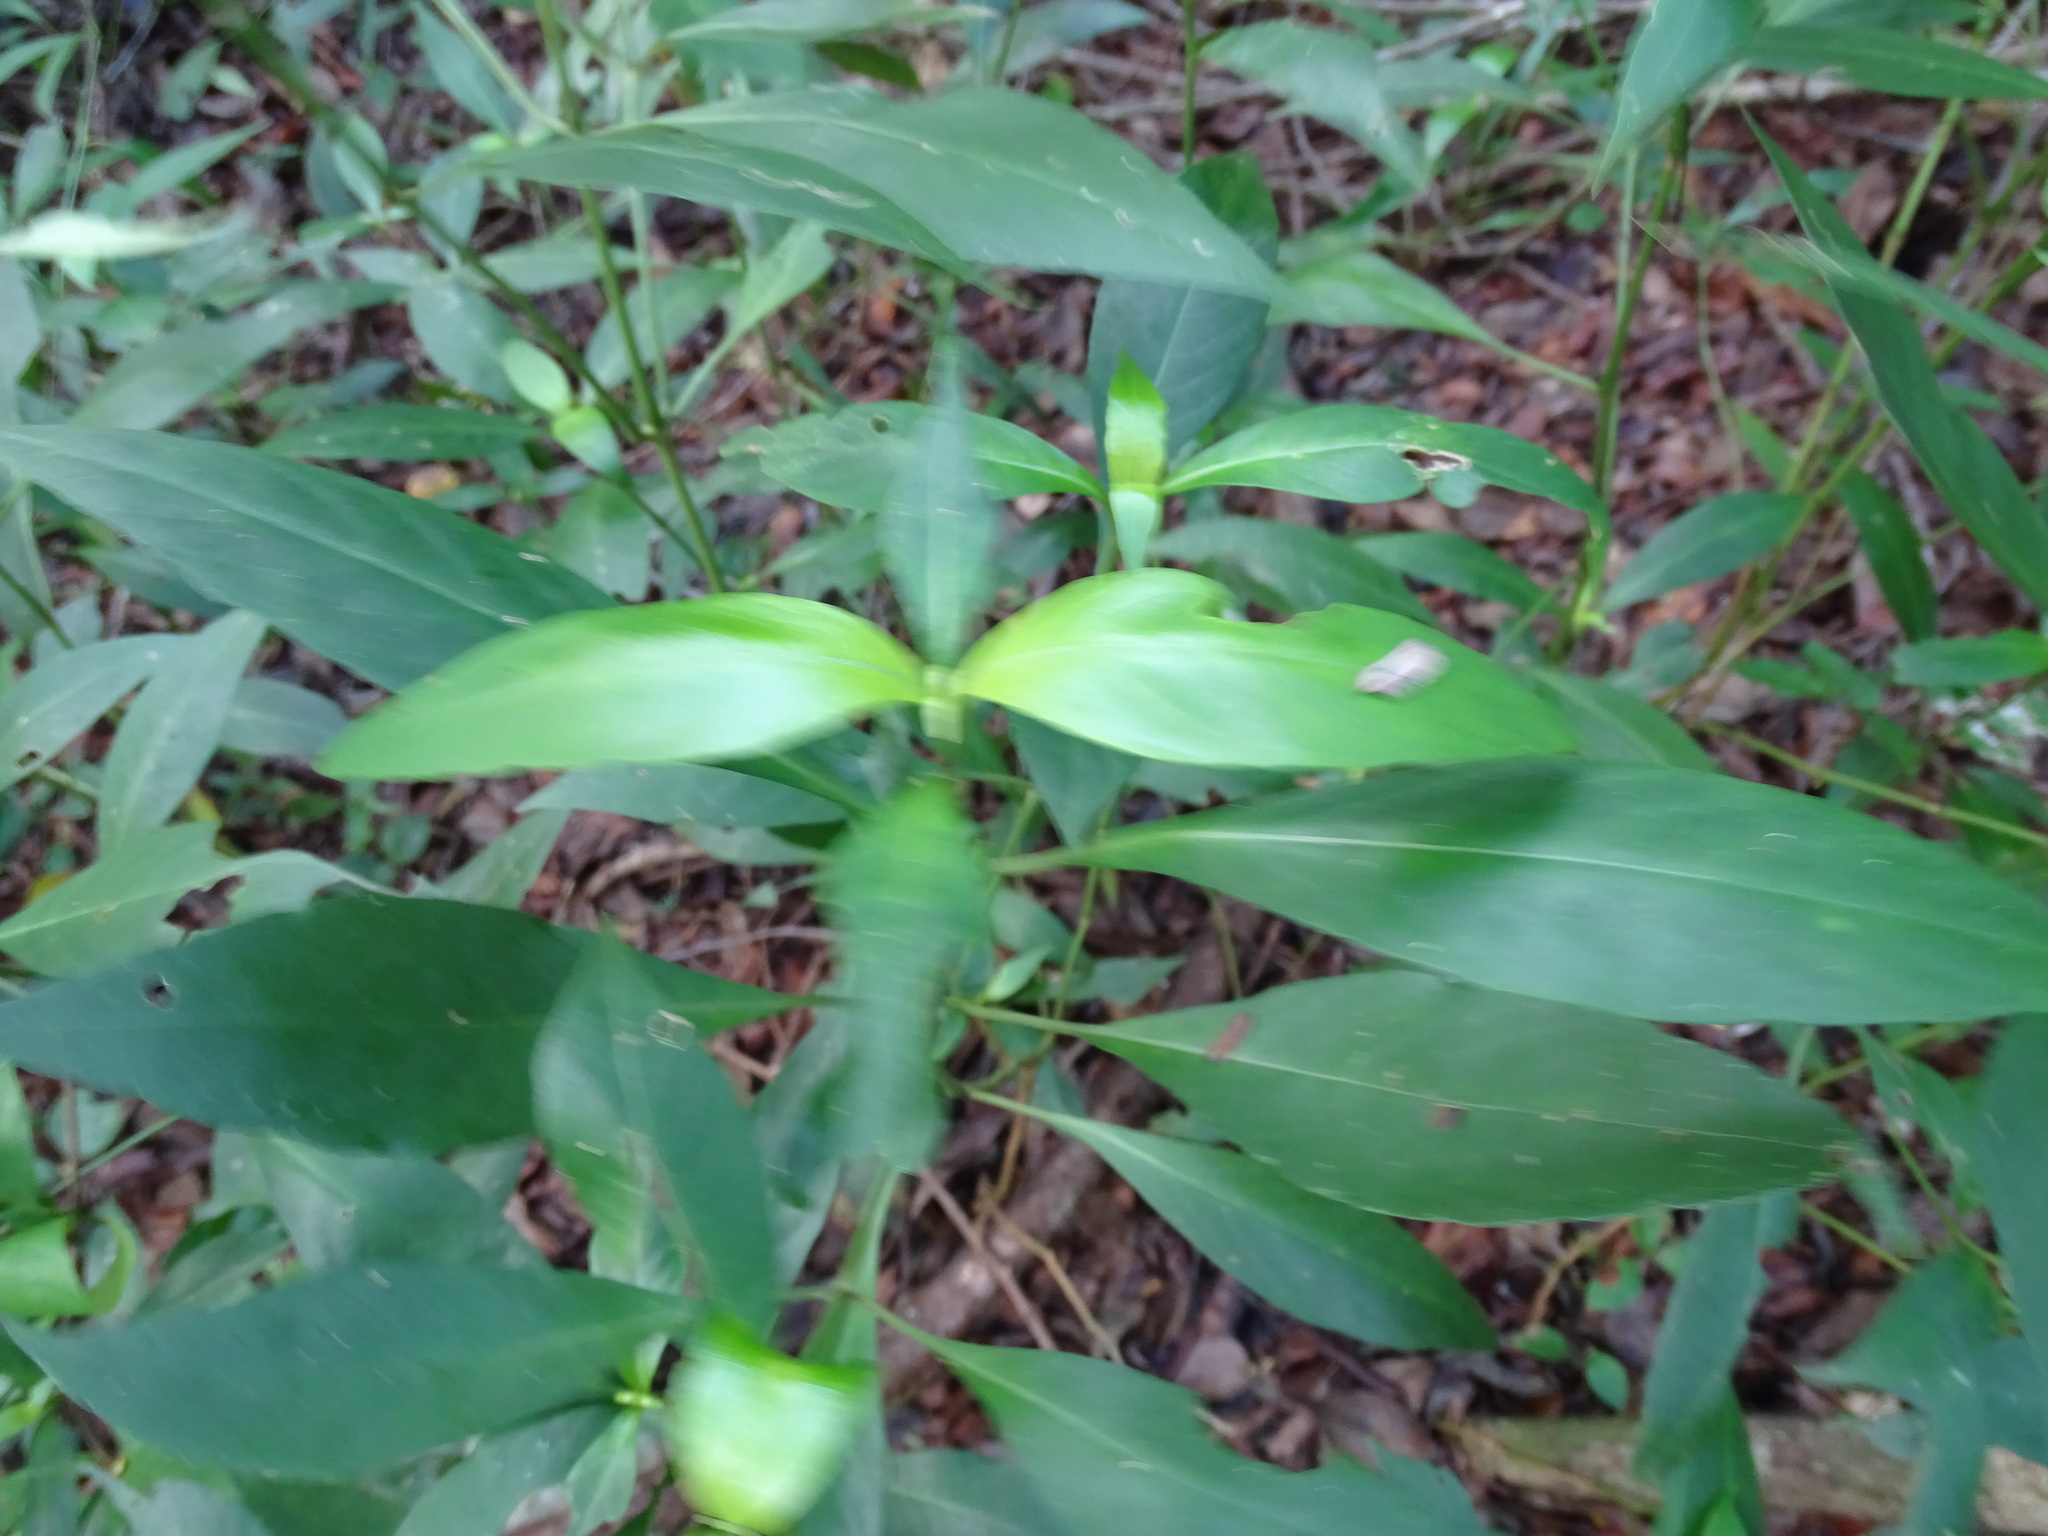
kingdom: Plantae
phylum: Tracheophyta
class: Magnoliopsida
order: Lamiales
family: Acanthaceae
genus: Justicia
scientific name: Justicia campechiana
